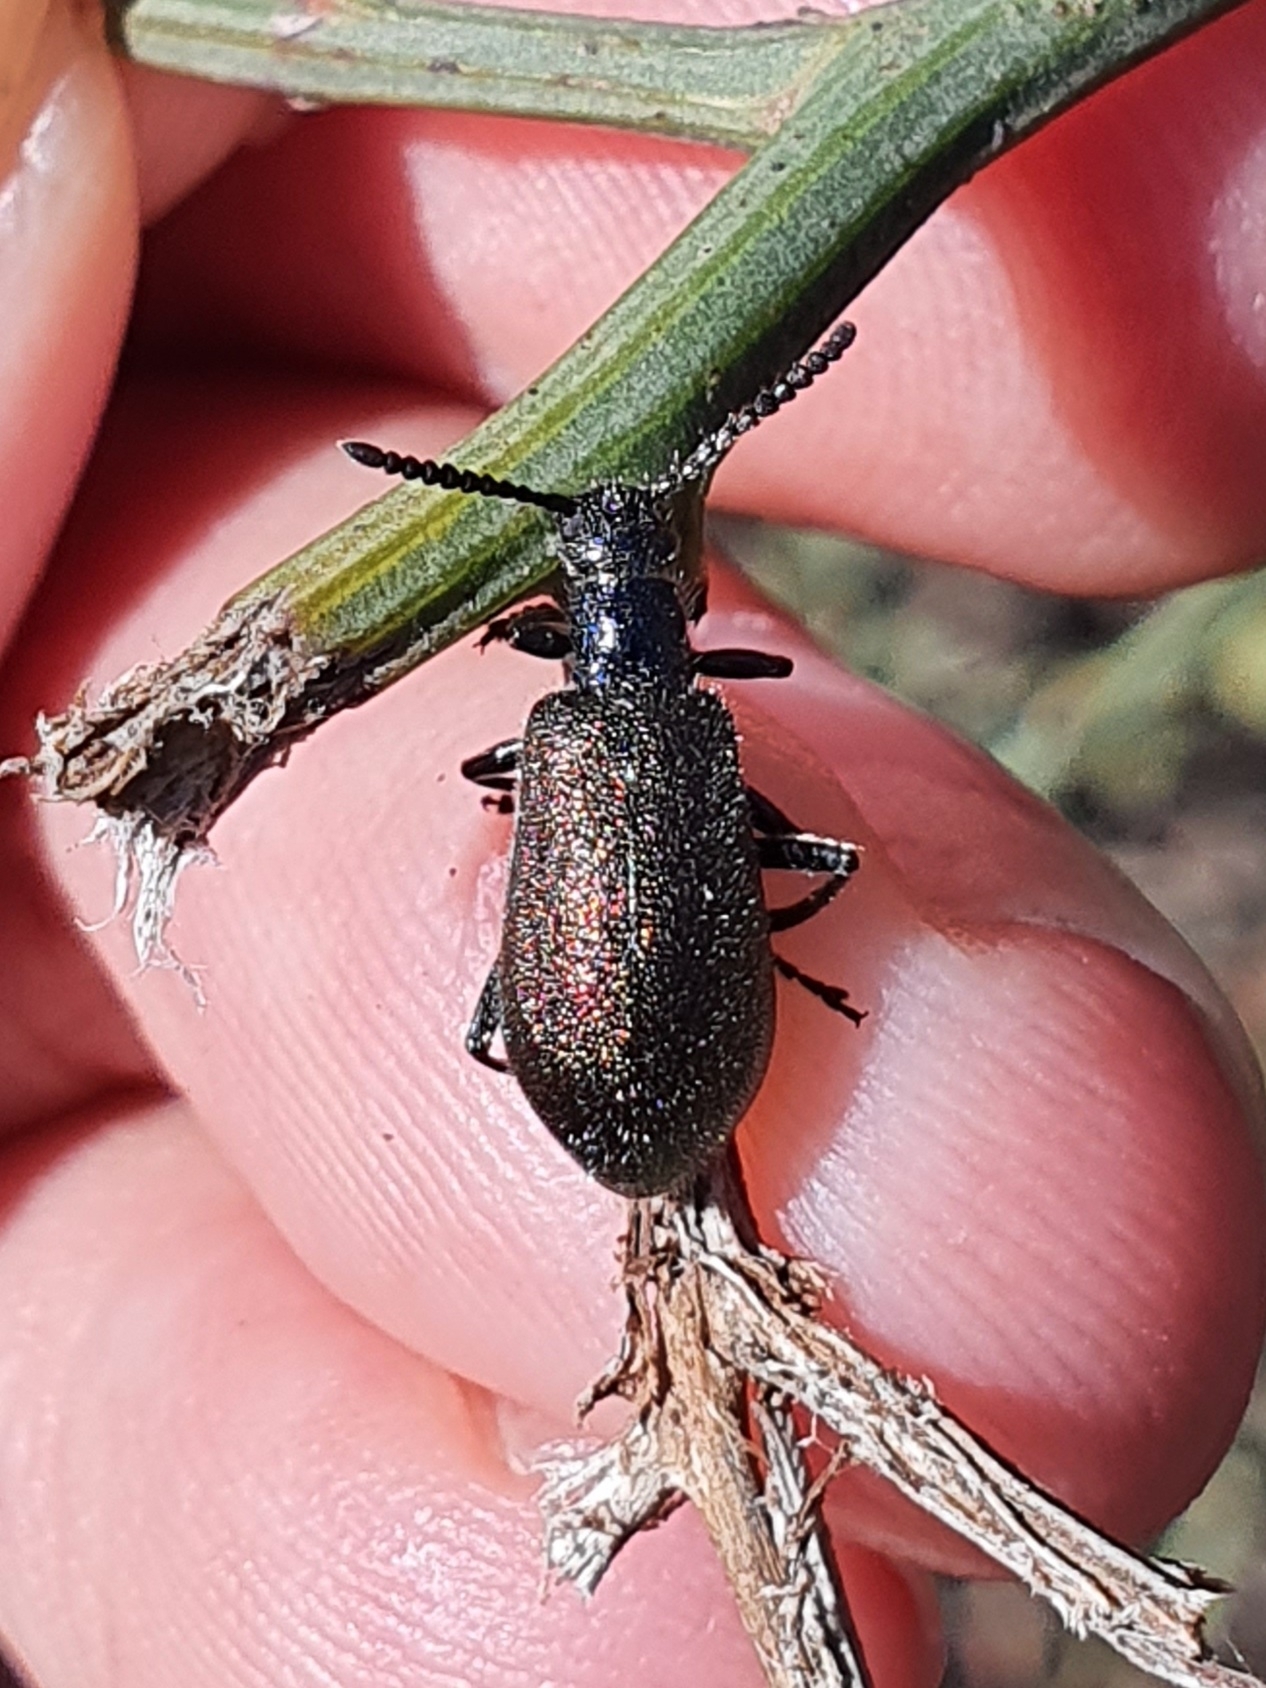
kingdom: Animalia
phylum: Arthropoda
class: Insecta
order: Coleoptera
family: Tenebrionidae
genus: Chrysolagria
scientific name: Chrysolagria
